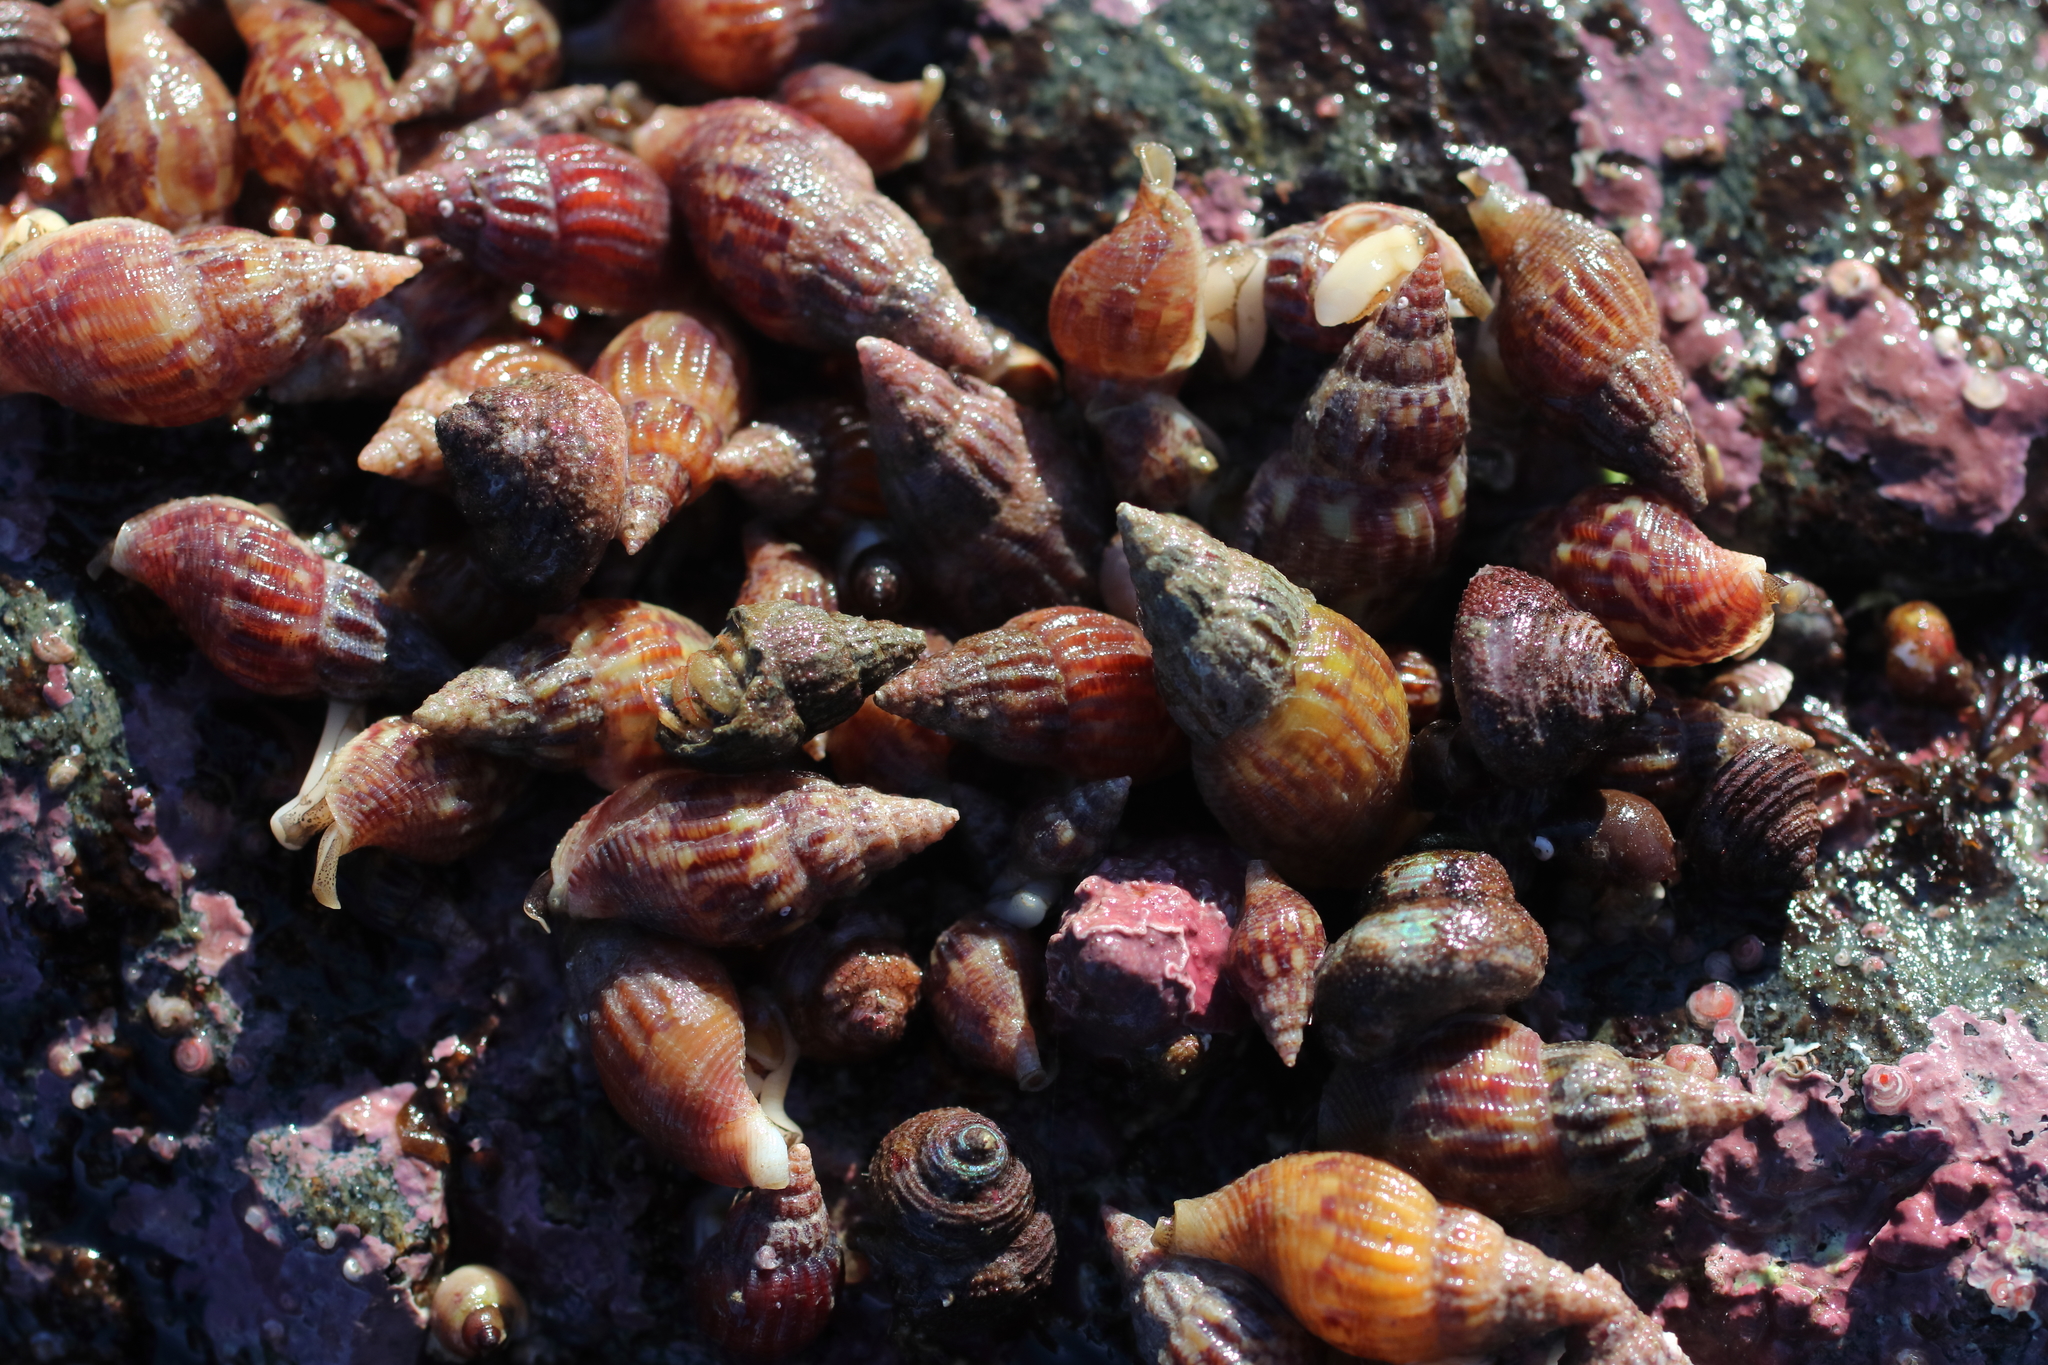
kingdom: Animalia
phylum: Mollusca
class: Gastropoda
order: Neogastropoda
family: Columbellidae
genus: Amphissa
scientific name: Amphissa columbiana
